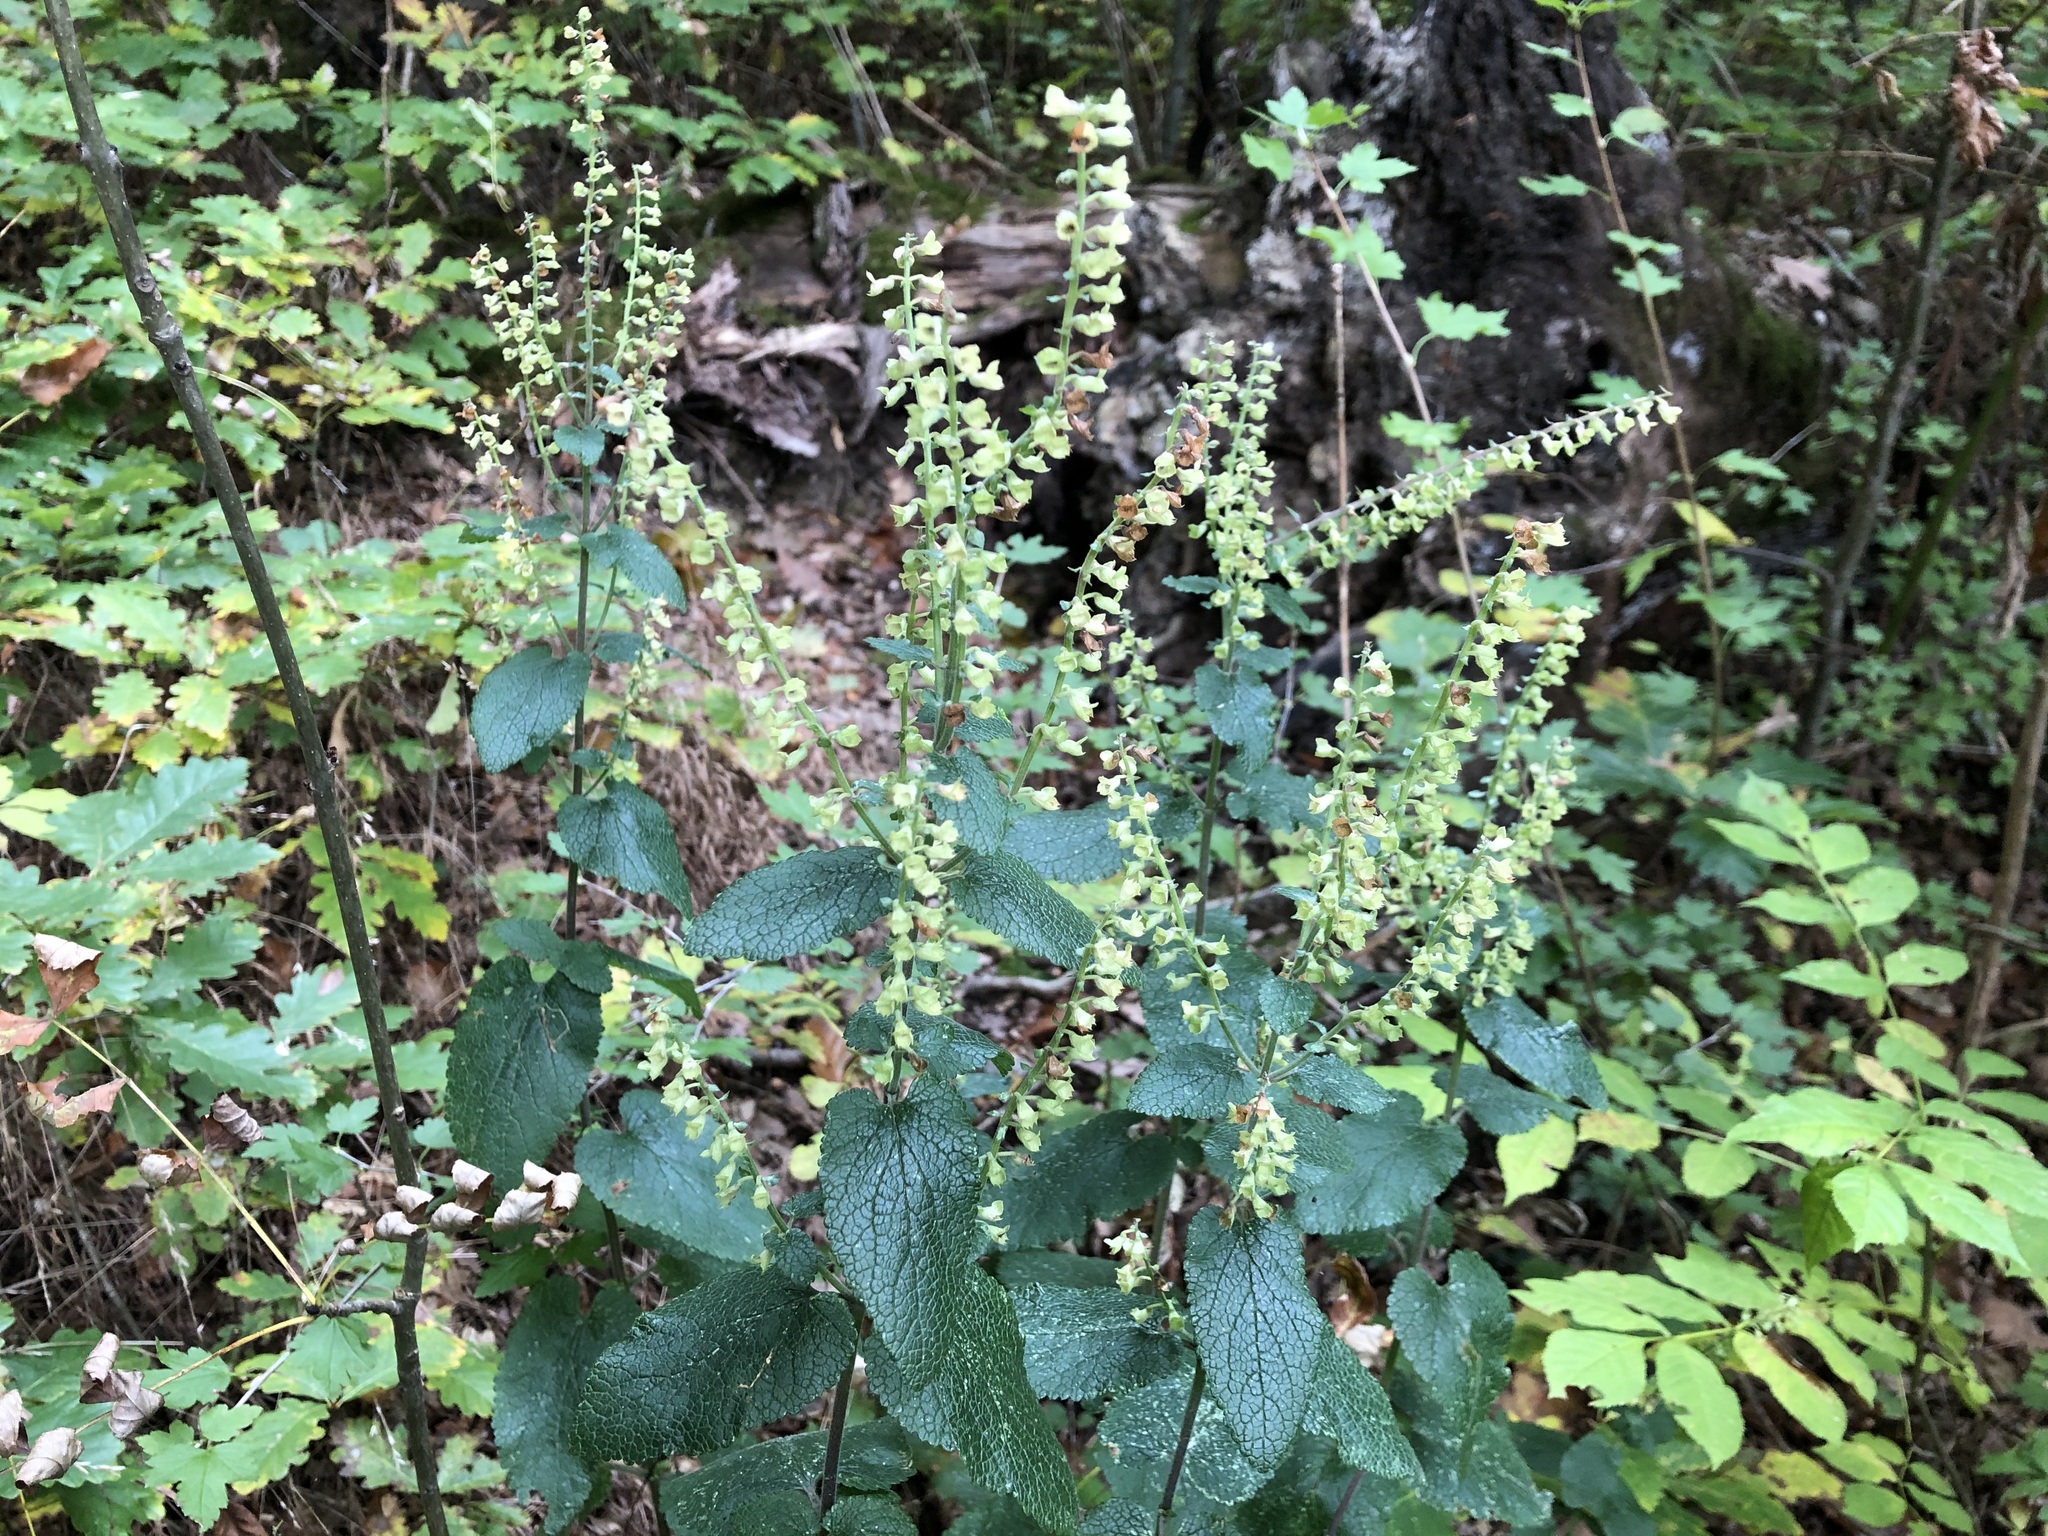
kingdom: Plantae
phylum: Tracheophyta
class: Magnoliopsida
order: Lamiales
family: Lamiaceae
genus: Teucrium
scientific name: Teucrium scorodonia
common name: Woodland germander
